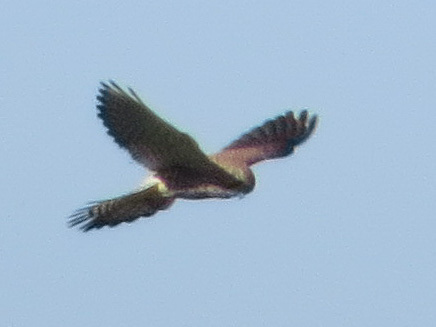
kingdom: Animalia
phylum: Chordata
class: Aves
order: Falconiformes
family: Falconidae
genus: Falco
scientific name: Falco tinnunculus
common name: Common kestrel
